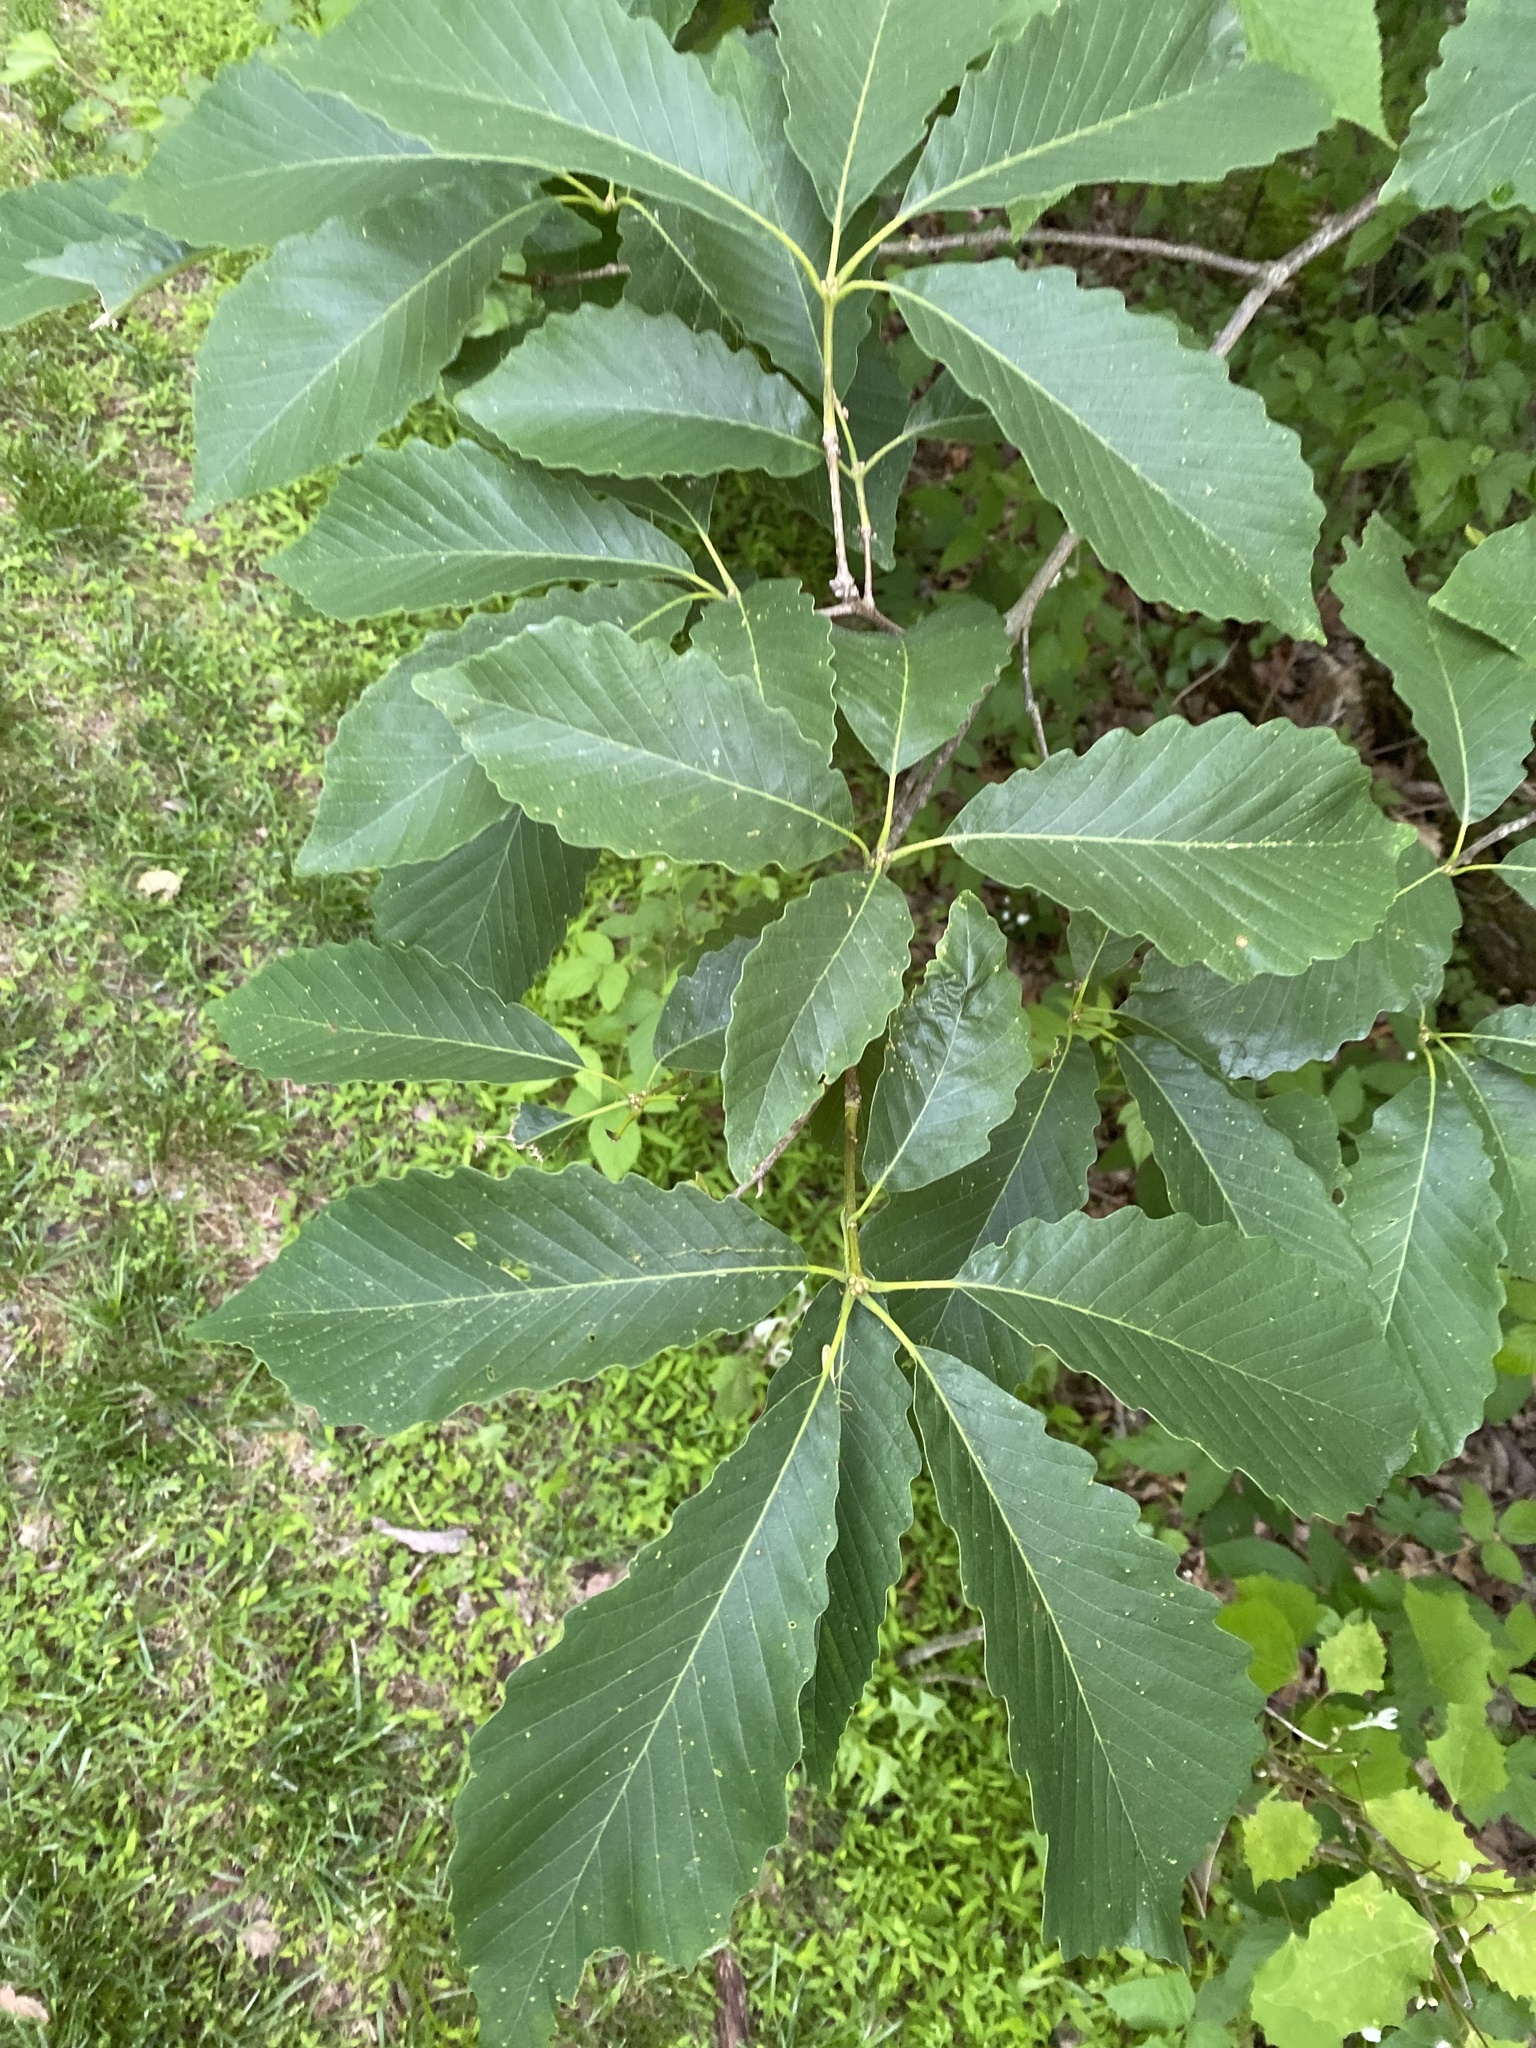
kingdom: Plantae
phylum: Tracheophyta
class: Magnoliopsida
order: Fagales
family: Fagaceae
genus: Quercus
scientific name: Quercus montana
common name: Chestnut oak
